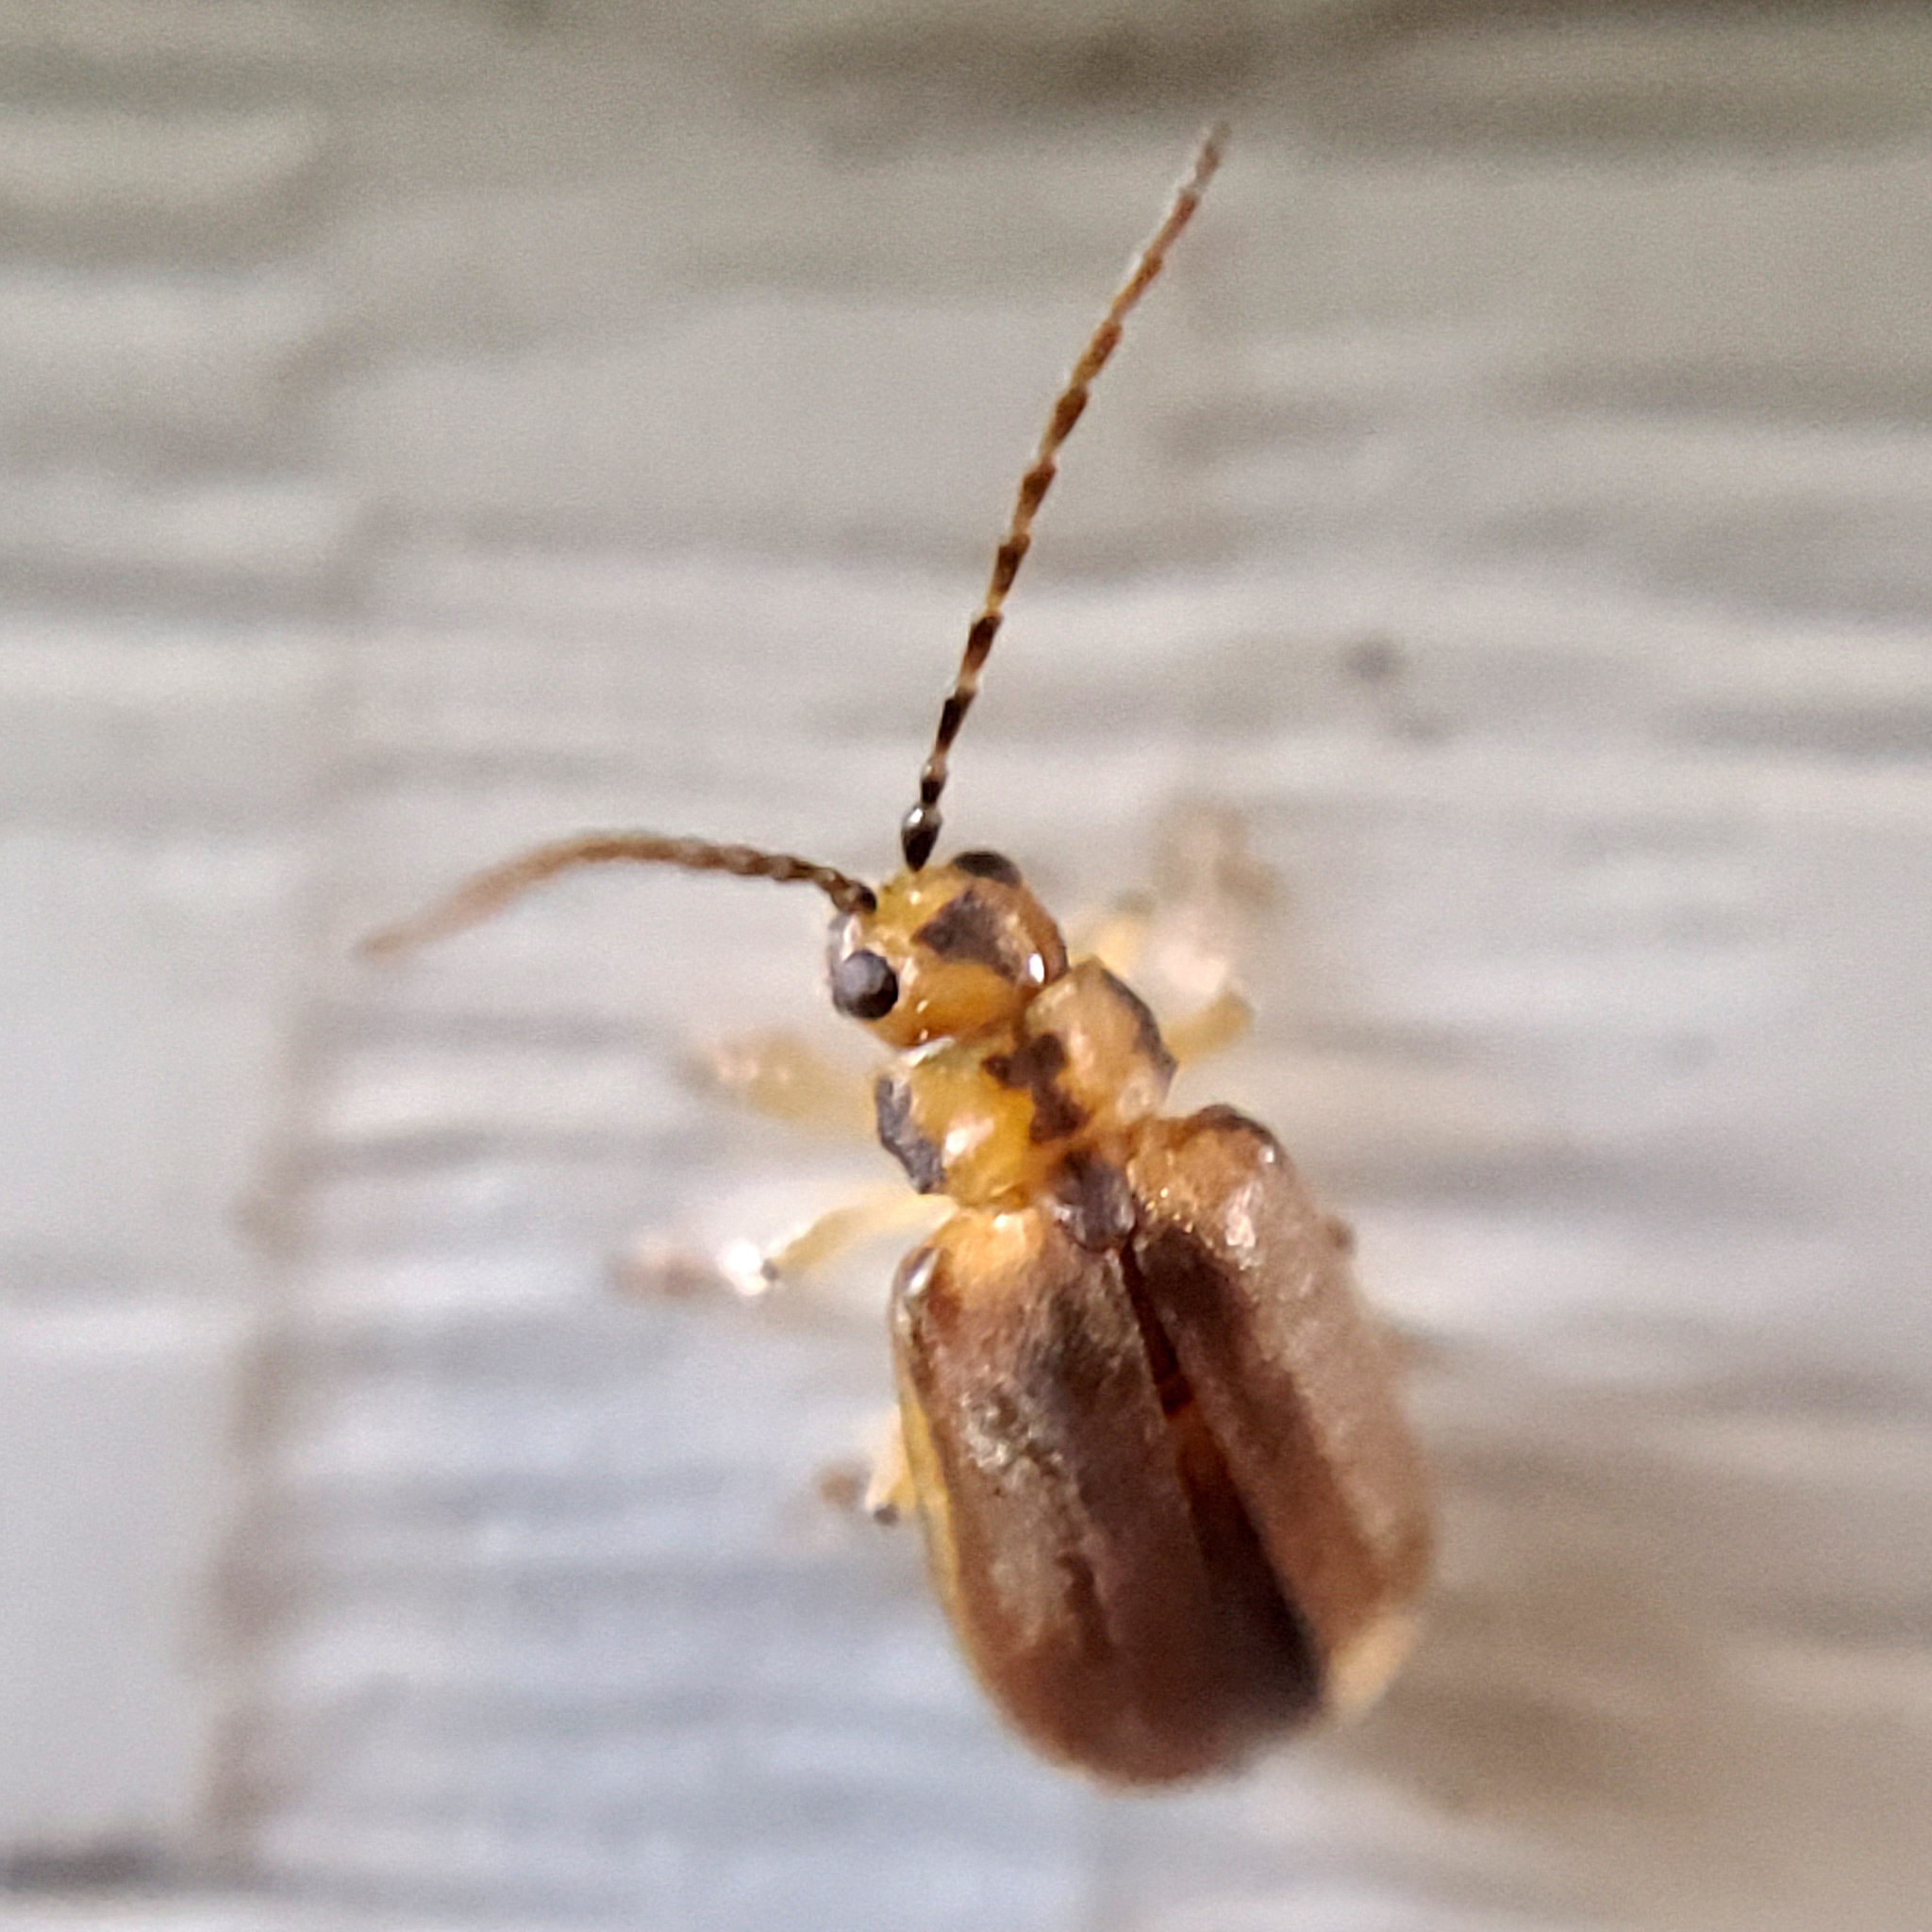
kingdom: Animalia
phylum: Arthropoda
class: Insecta
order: Coleoptera
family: Chrysomelidae
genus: Pyrrhalta
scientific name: Pyrrhalta viburni
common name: Guelder-rose leaf beetle
